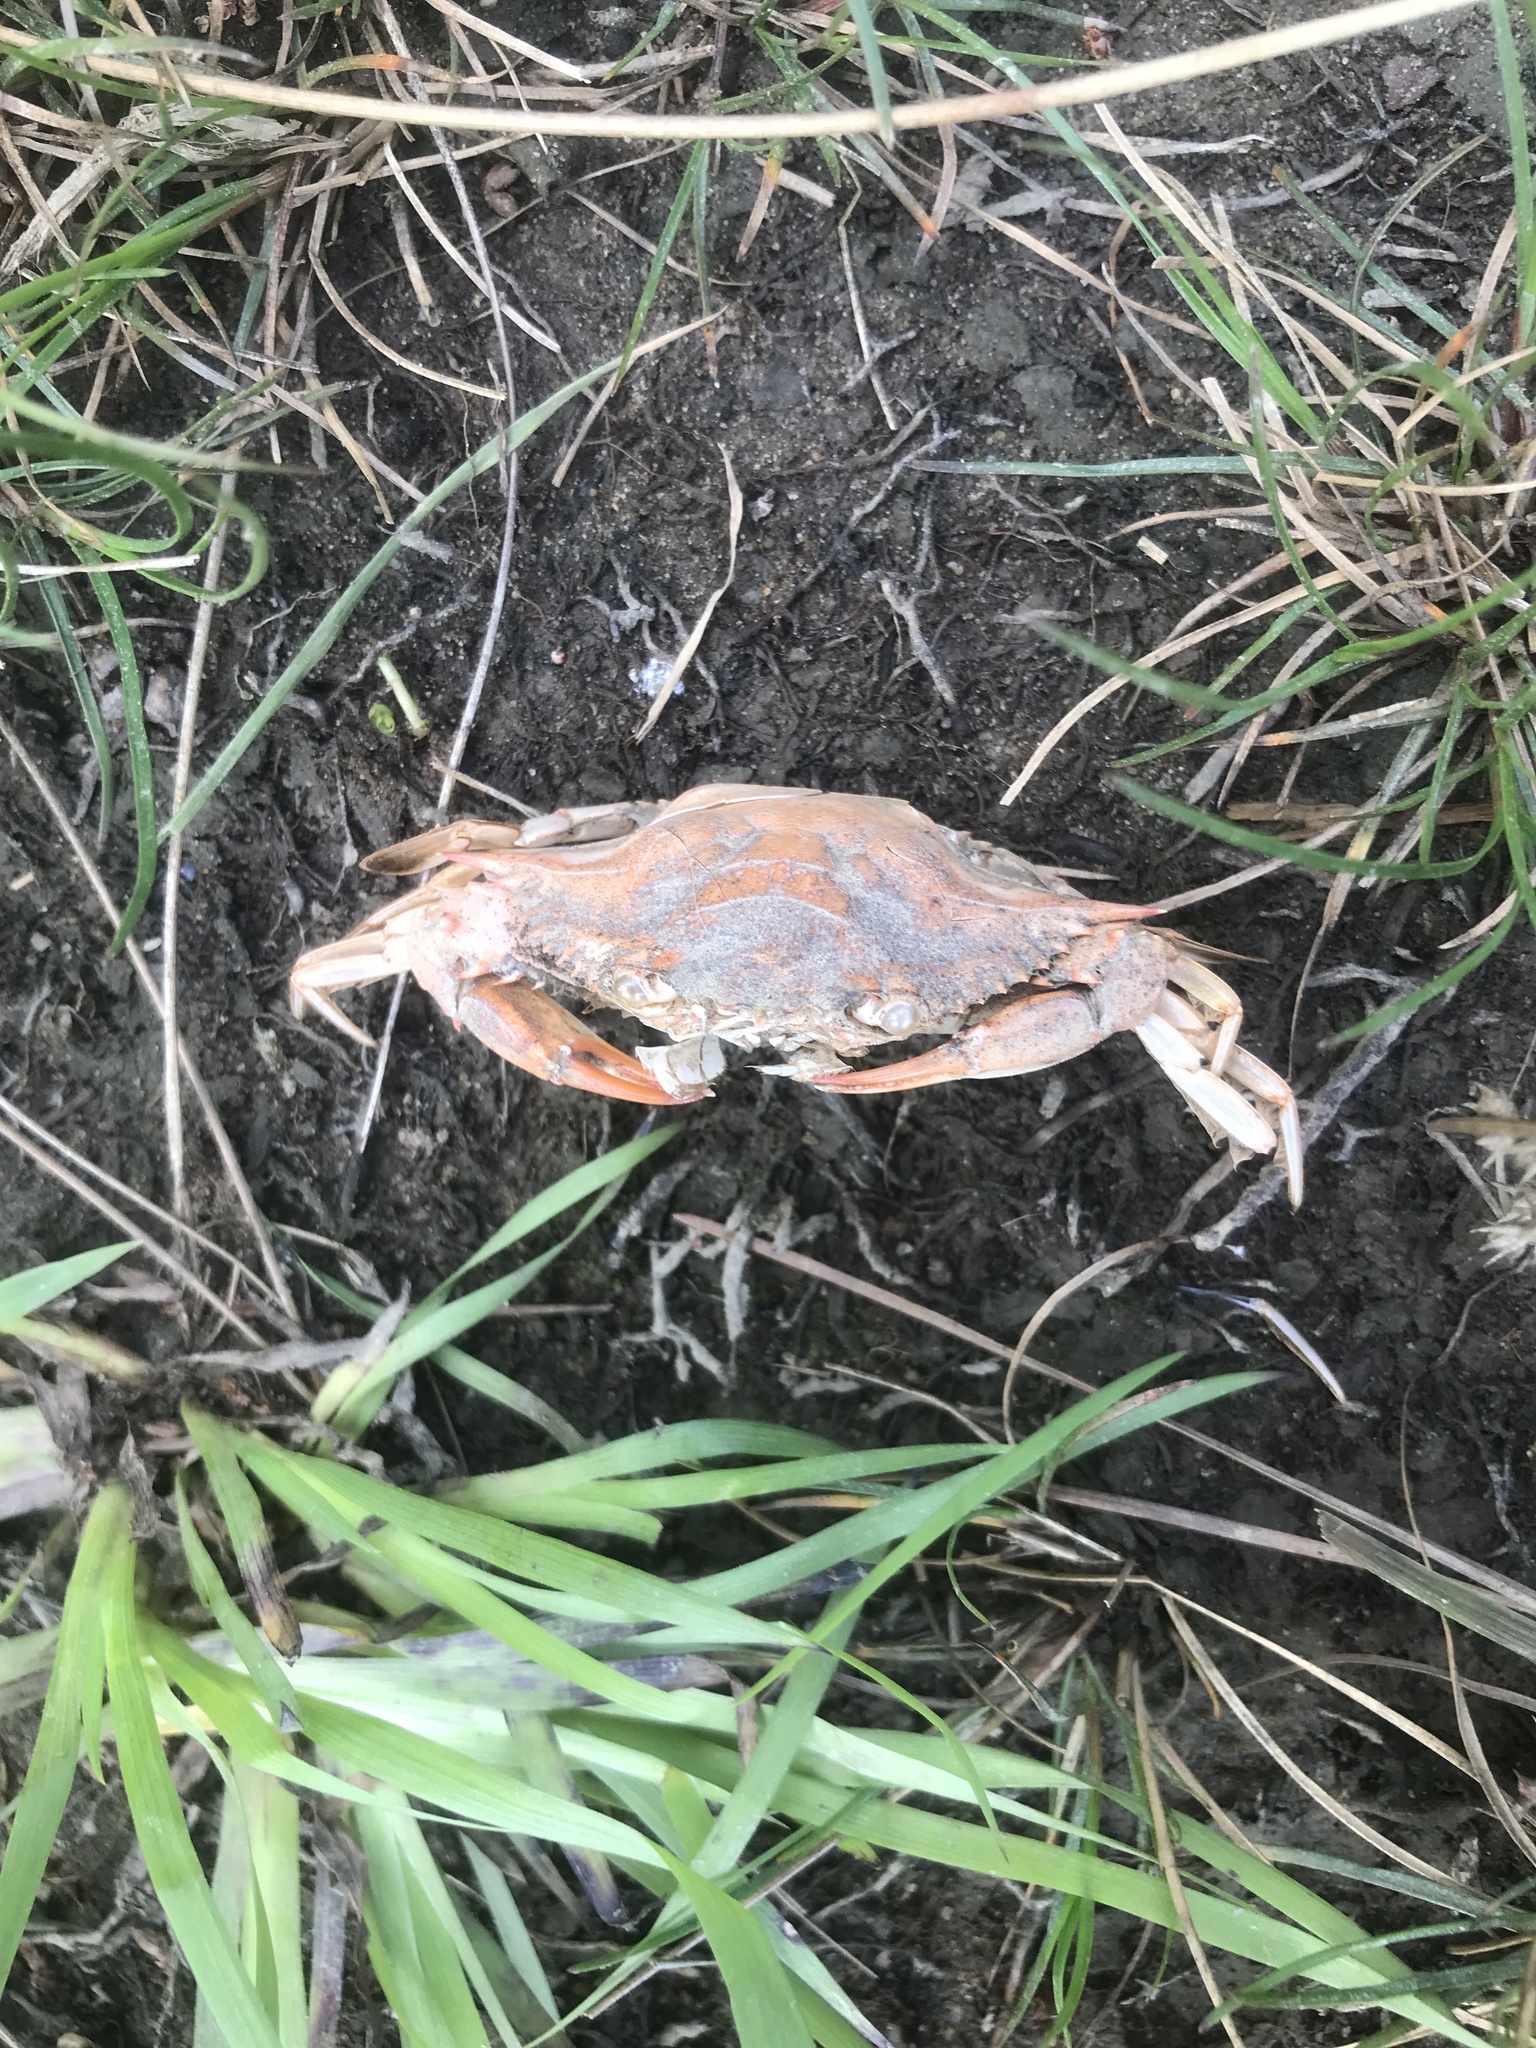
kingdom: Animalia
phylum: Arthropoda
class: Malacostraca
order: Decapoda
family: Portunidae
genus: Callinectes
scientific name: Callinectes sapidus
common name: Blue crab
